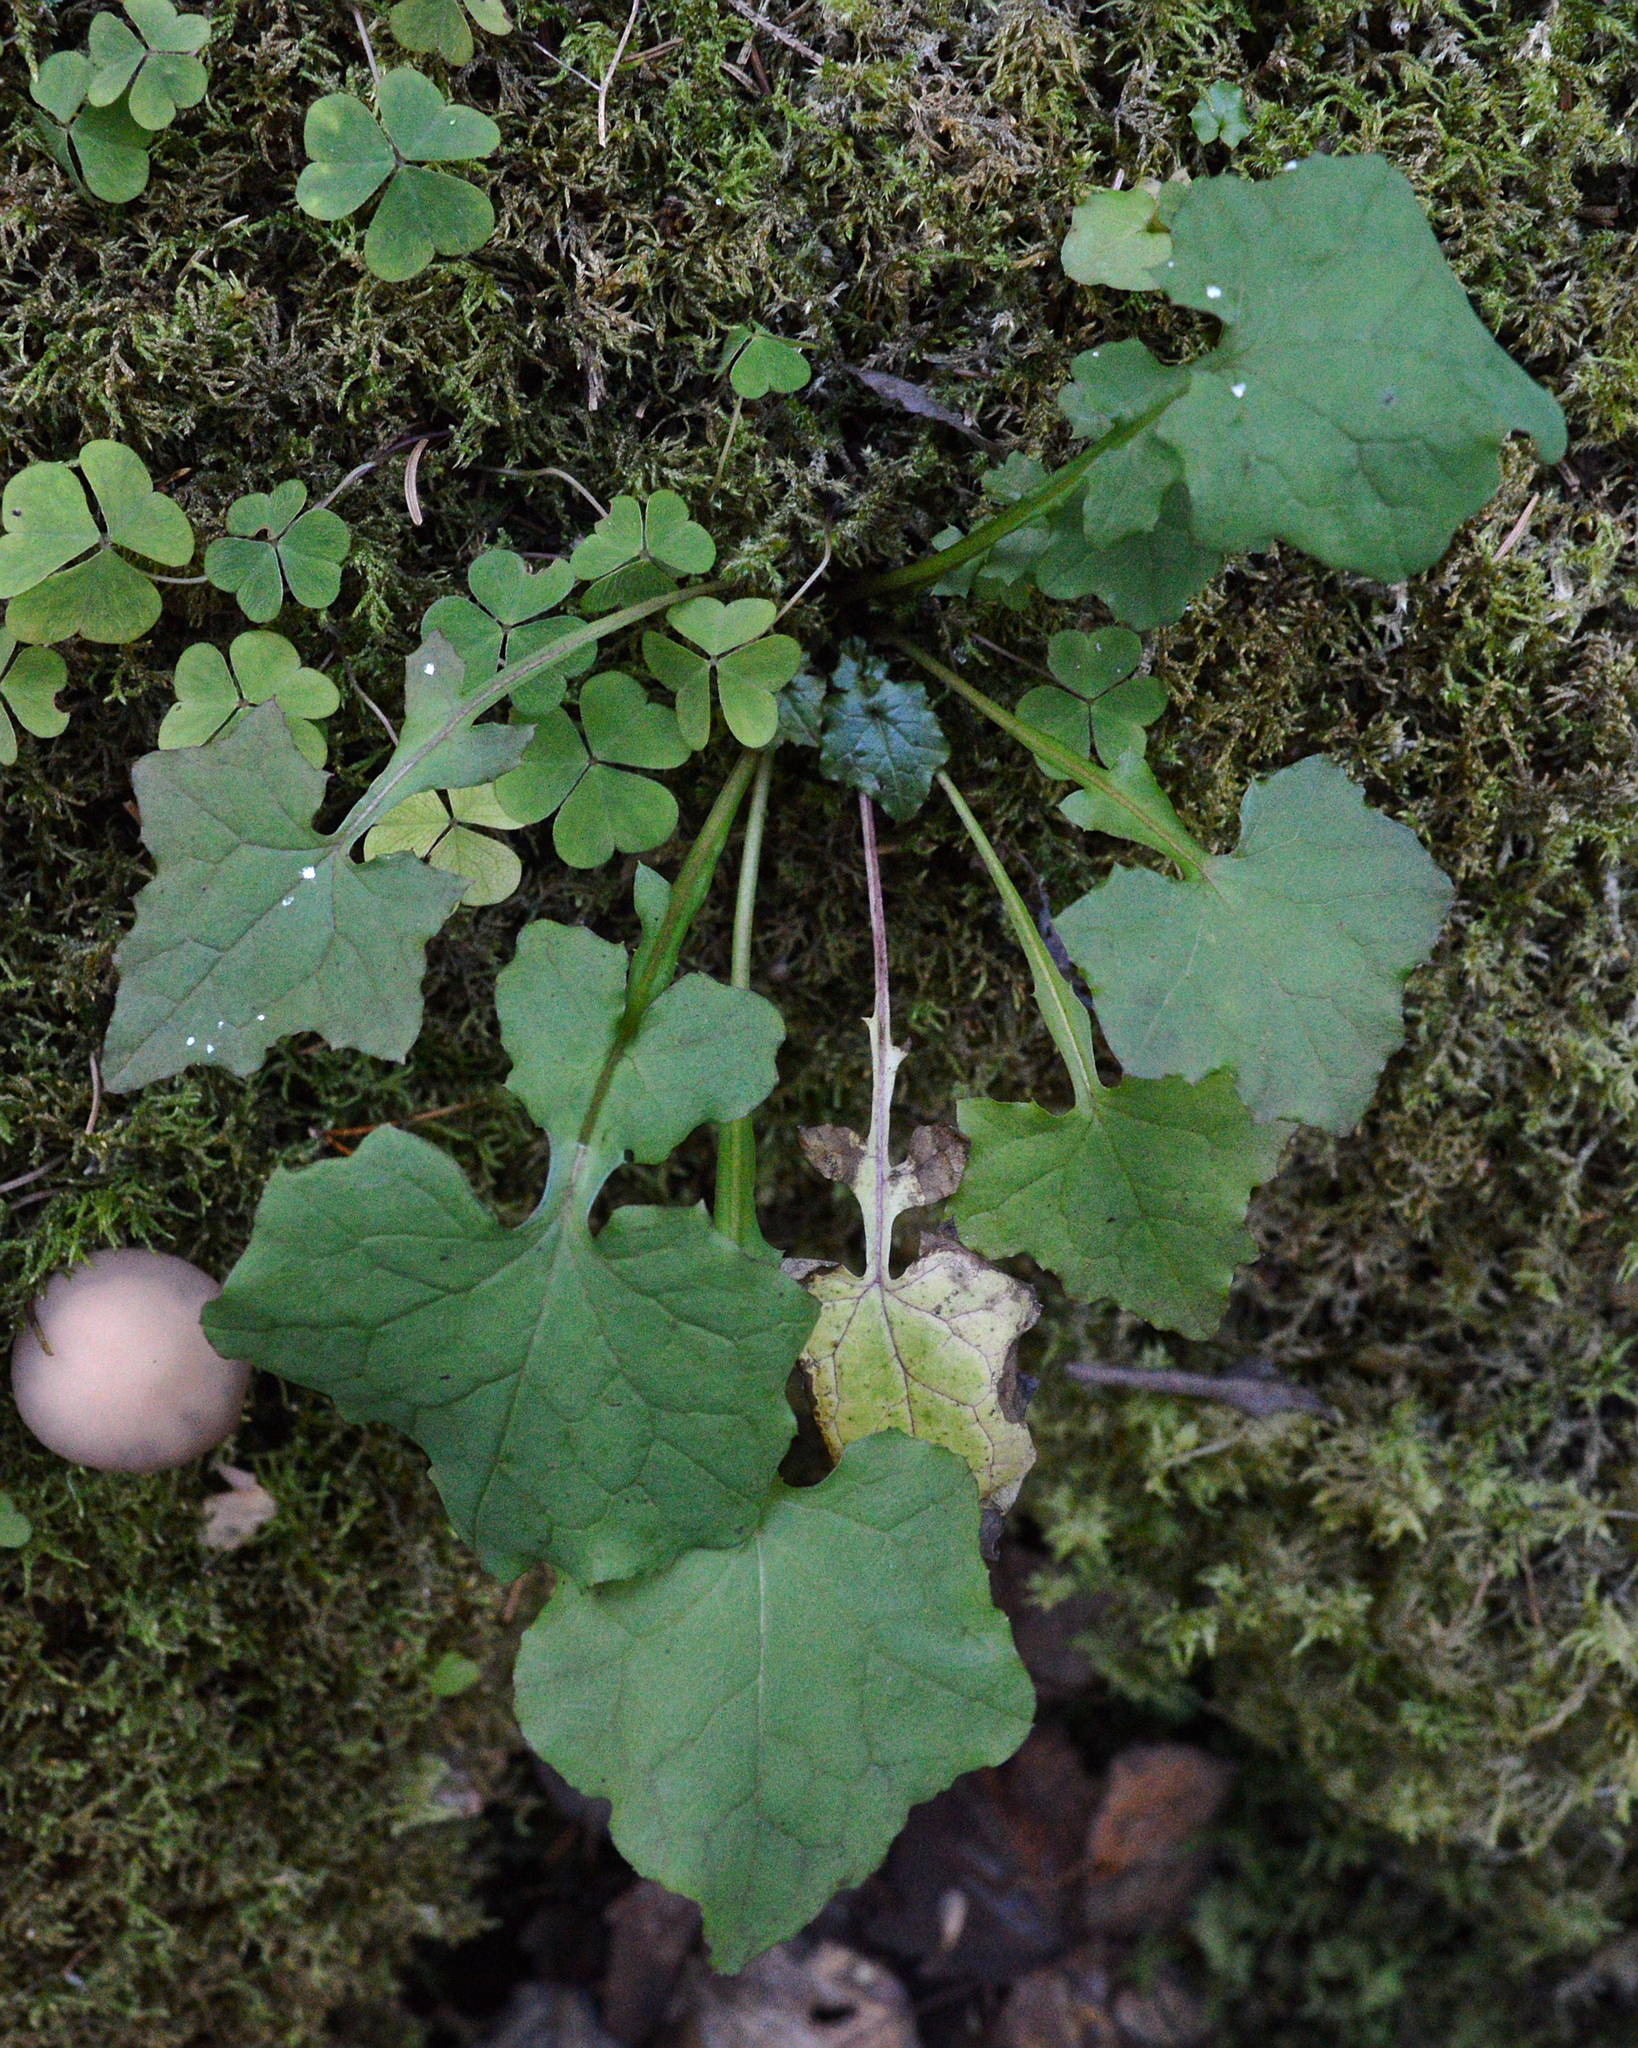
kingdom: Plantae
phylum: Tracheophyta
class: Magnoliopsida
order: Asterales
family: Asteraceae
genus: Mycelis
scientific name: Mycelis muralis
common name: Wall lettuce
